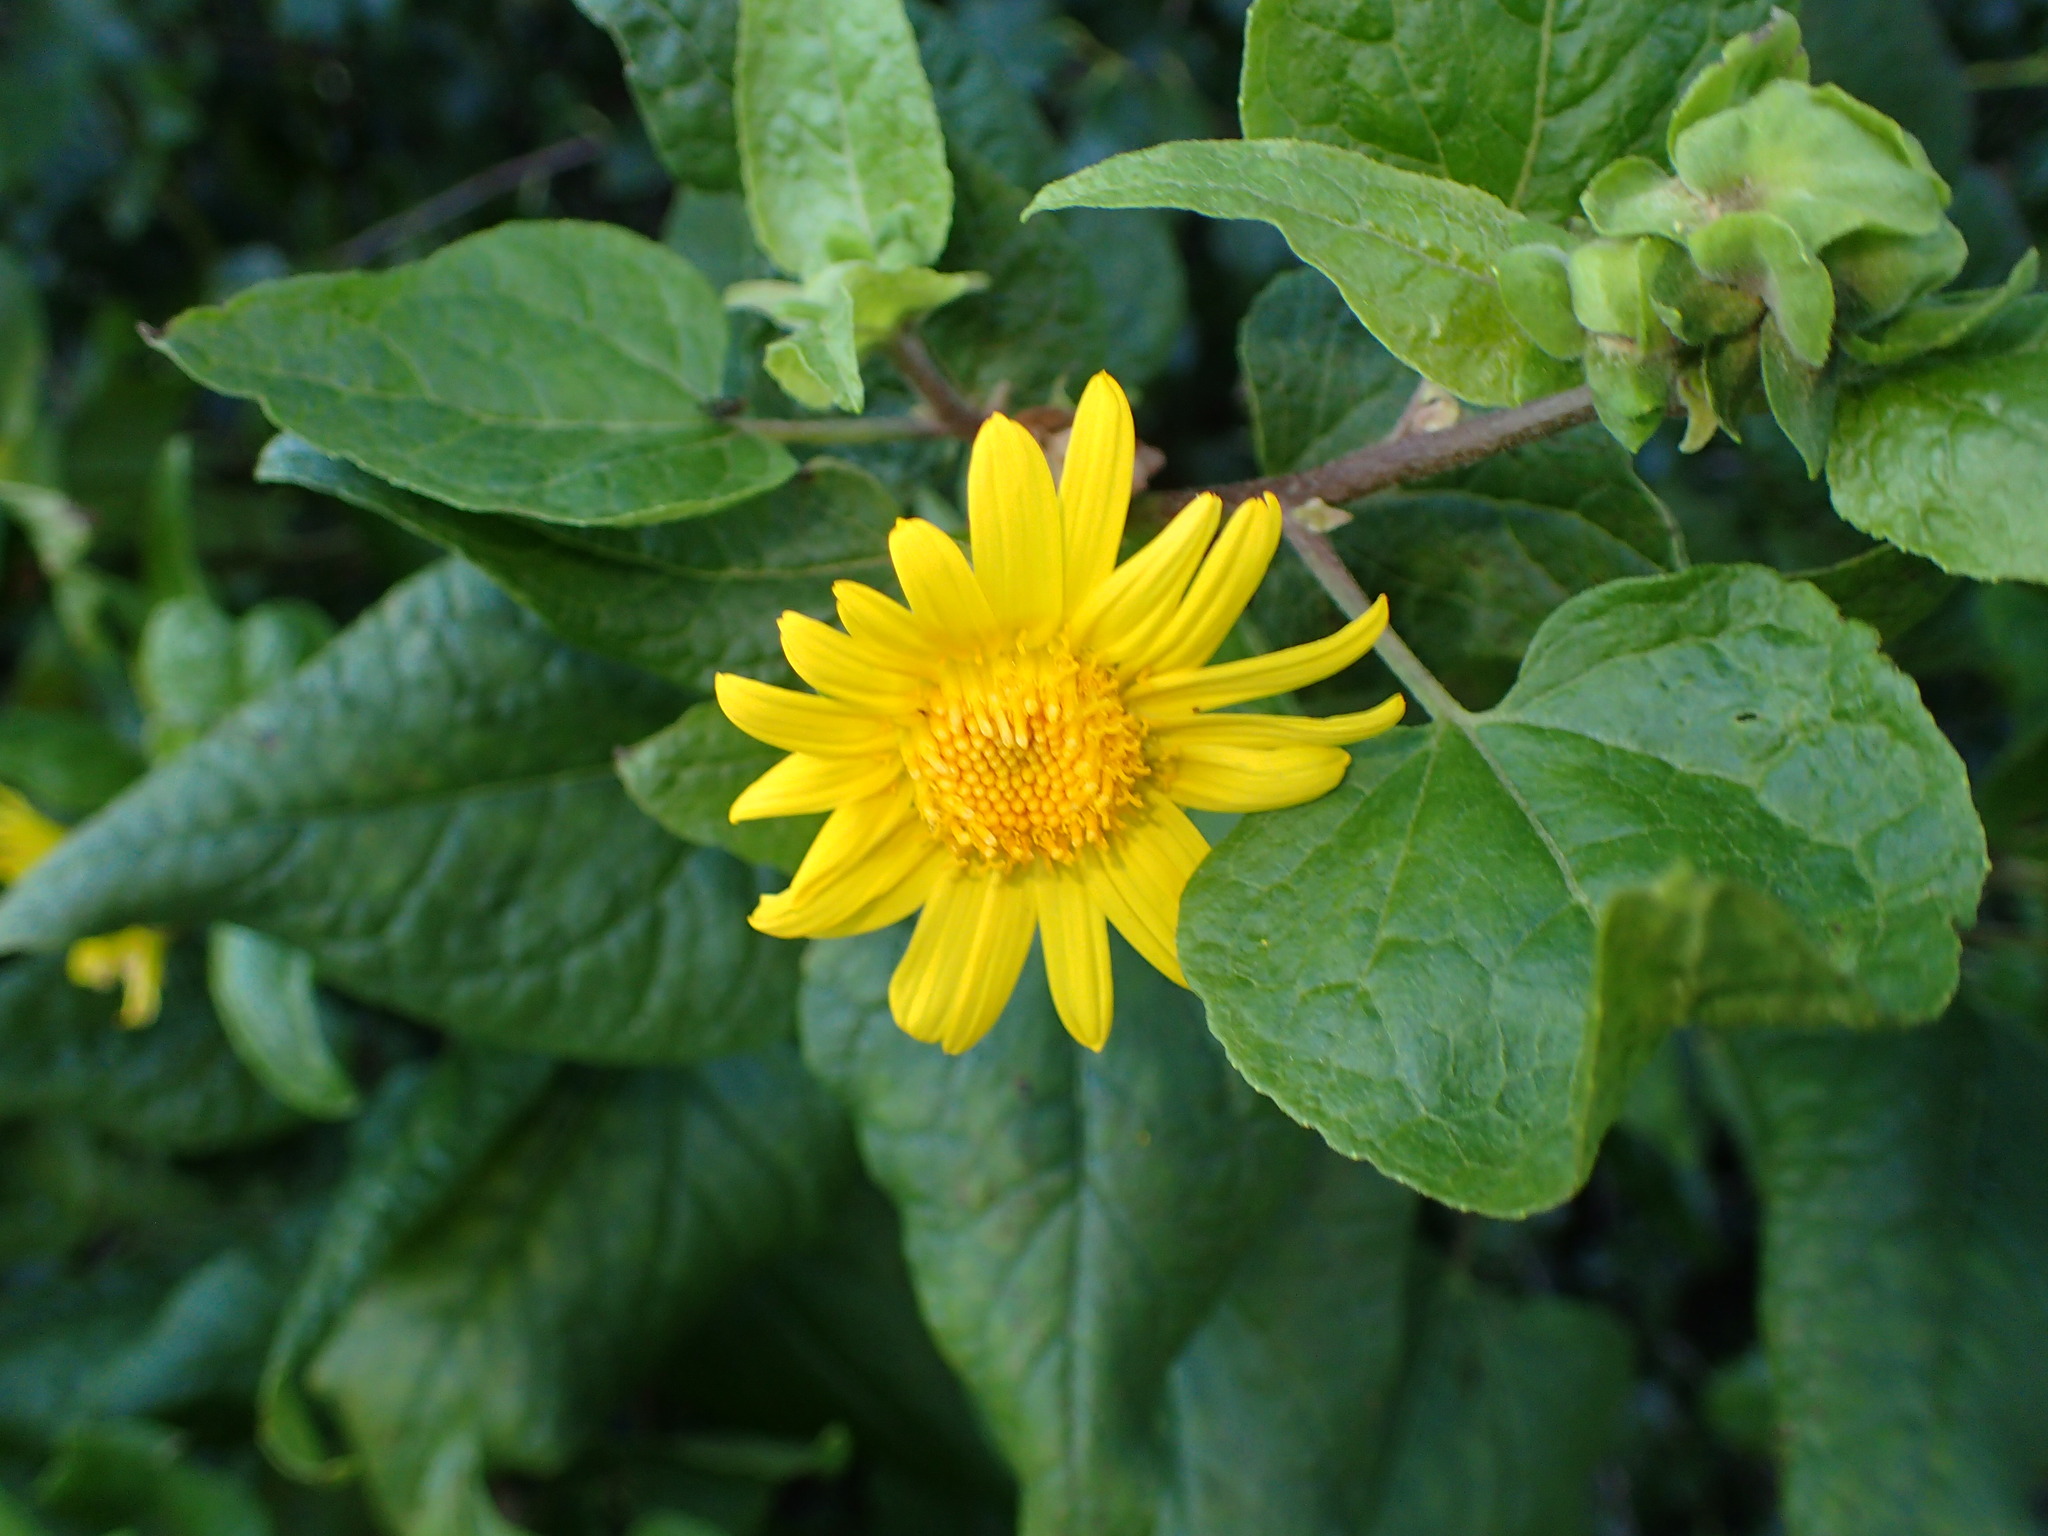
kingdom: Plantae
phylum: Tracheophyta
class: Magnoliopsida
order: Asterales
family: Asteraceae
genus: Venegasia
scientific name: Venegasia carpesioides
